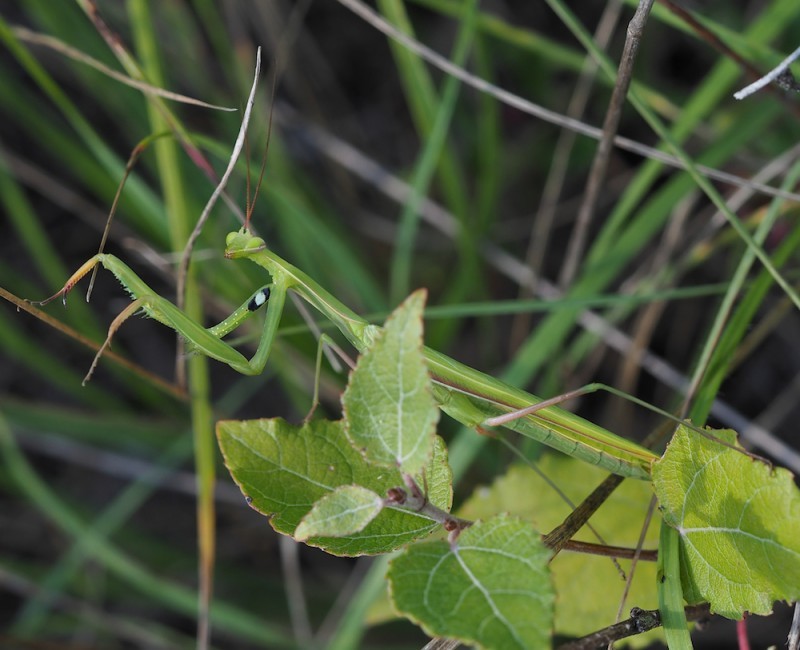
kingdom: Animalia
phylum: Arthropoda
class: Insecta
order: Mantodea
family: Mantidae
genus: Mantis
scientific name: Mantis religiosa
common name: Praying mantis
